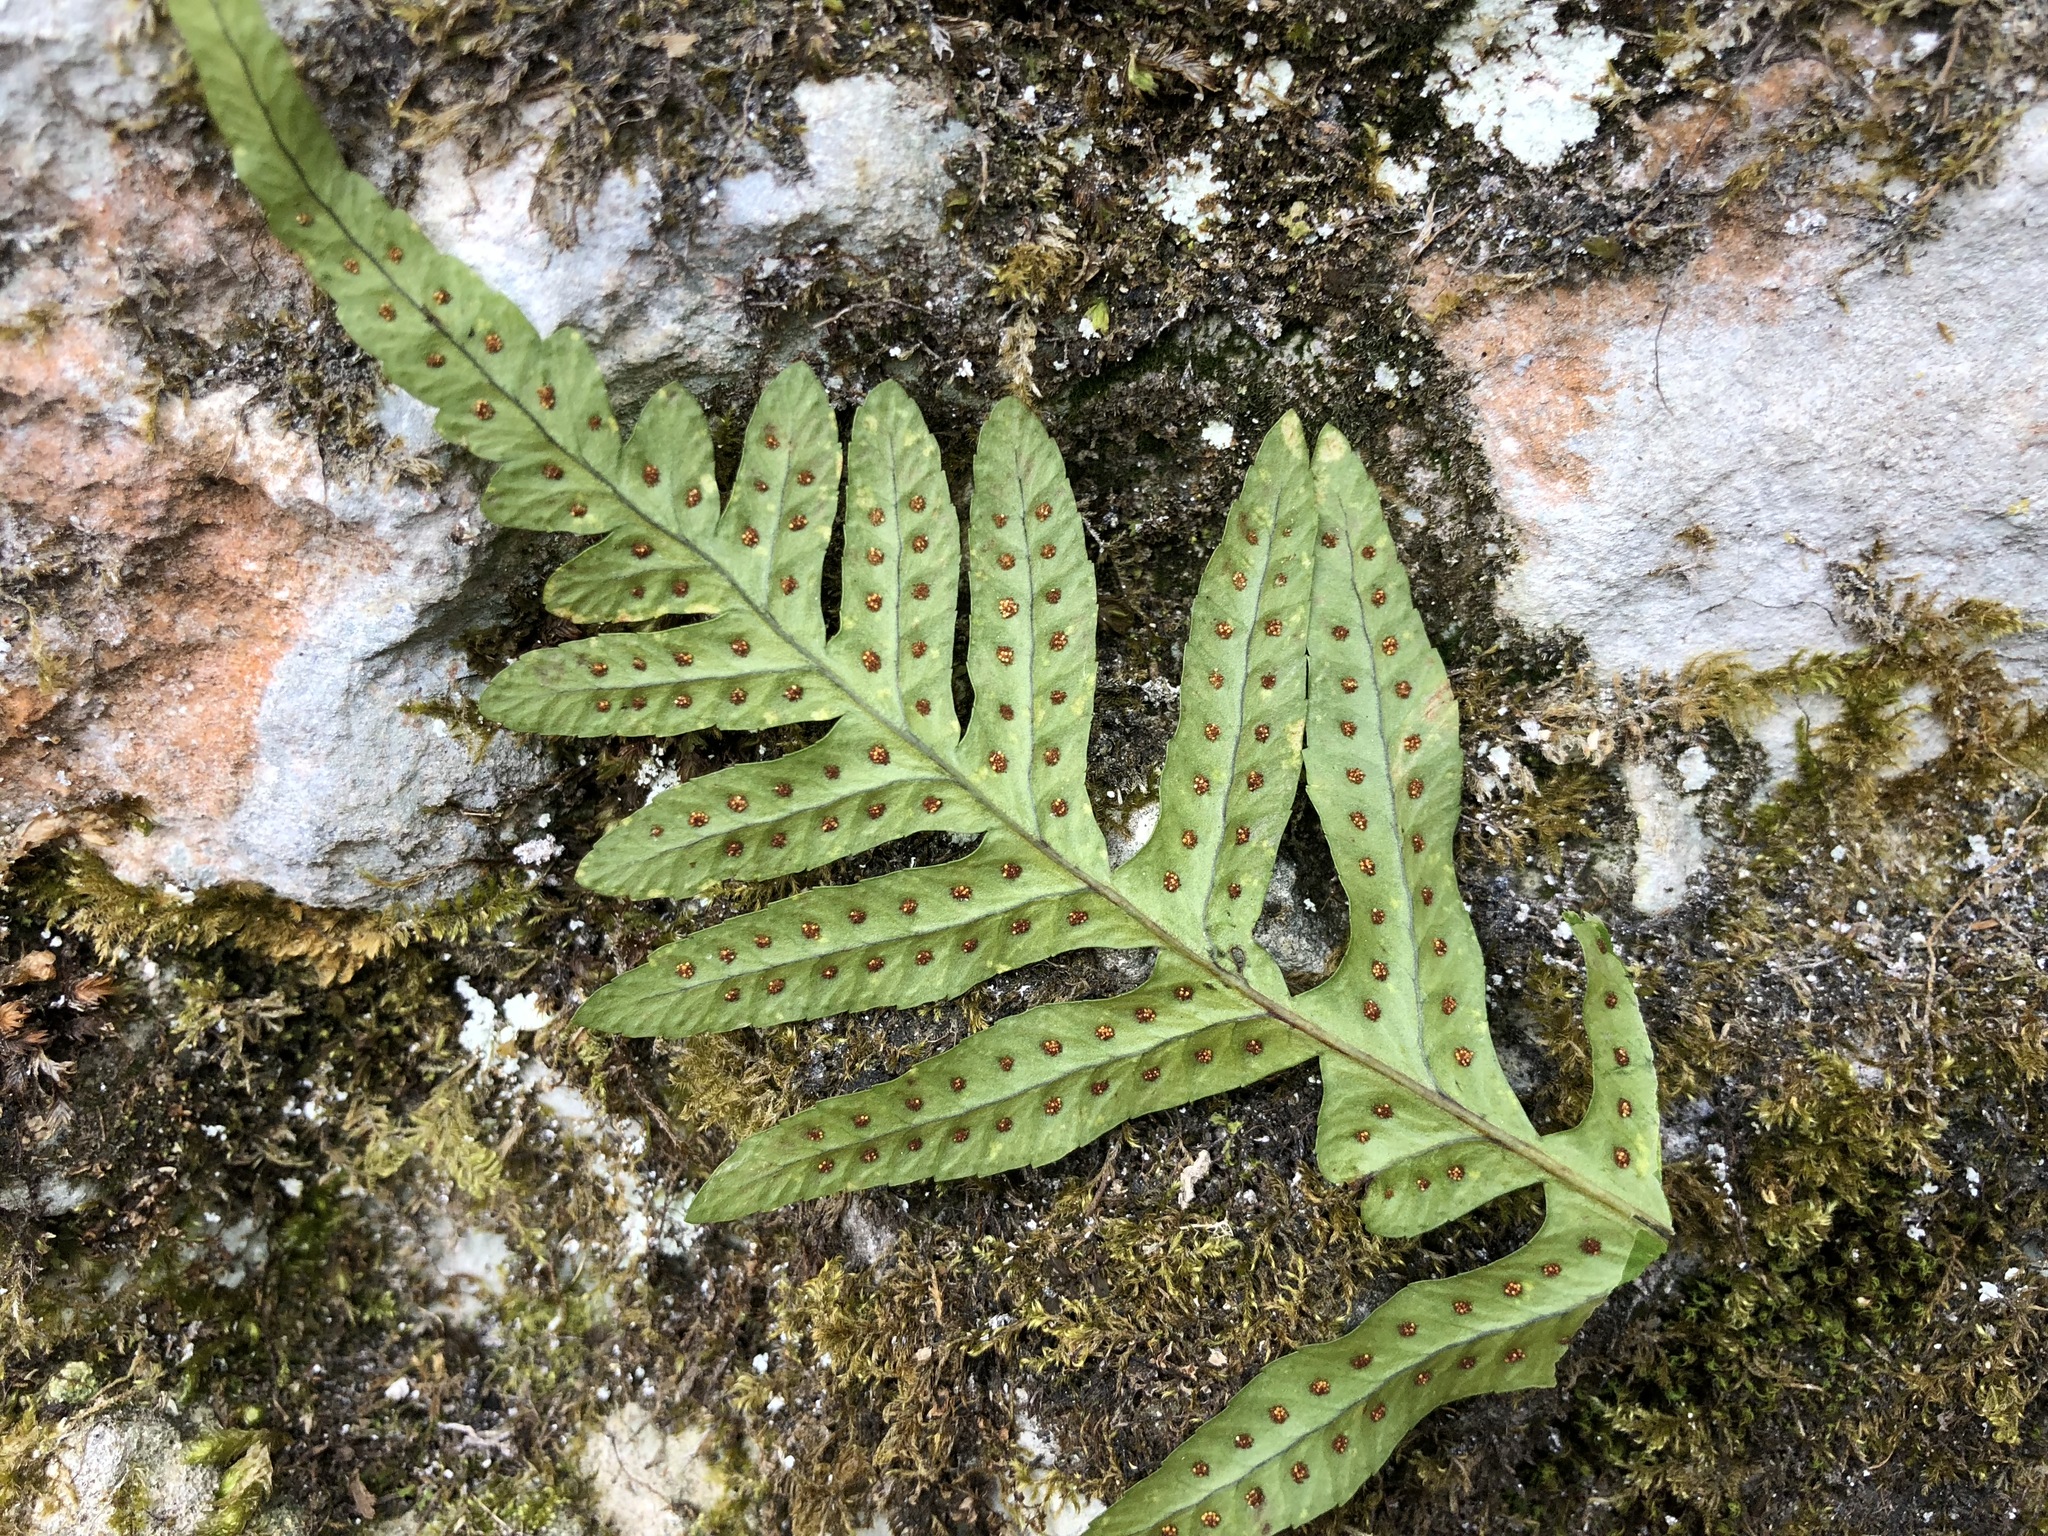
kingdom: Plantae
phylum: Tracheophyta
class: Polypodiopsida
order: Polypodiales
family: Polypodiaceae
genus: Polypodium
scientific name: Polypodium vulgare
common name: Common polypody
